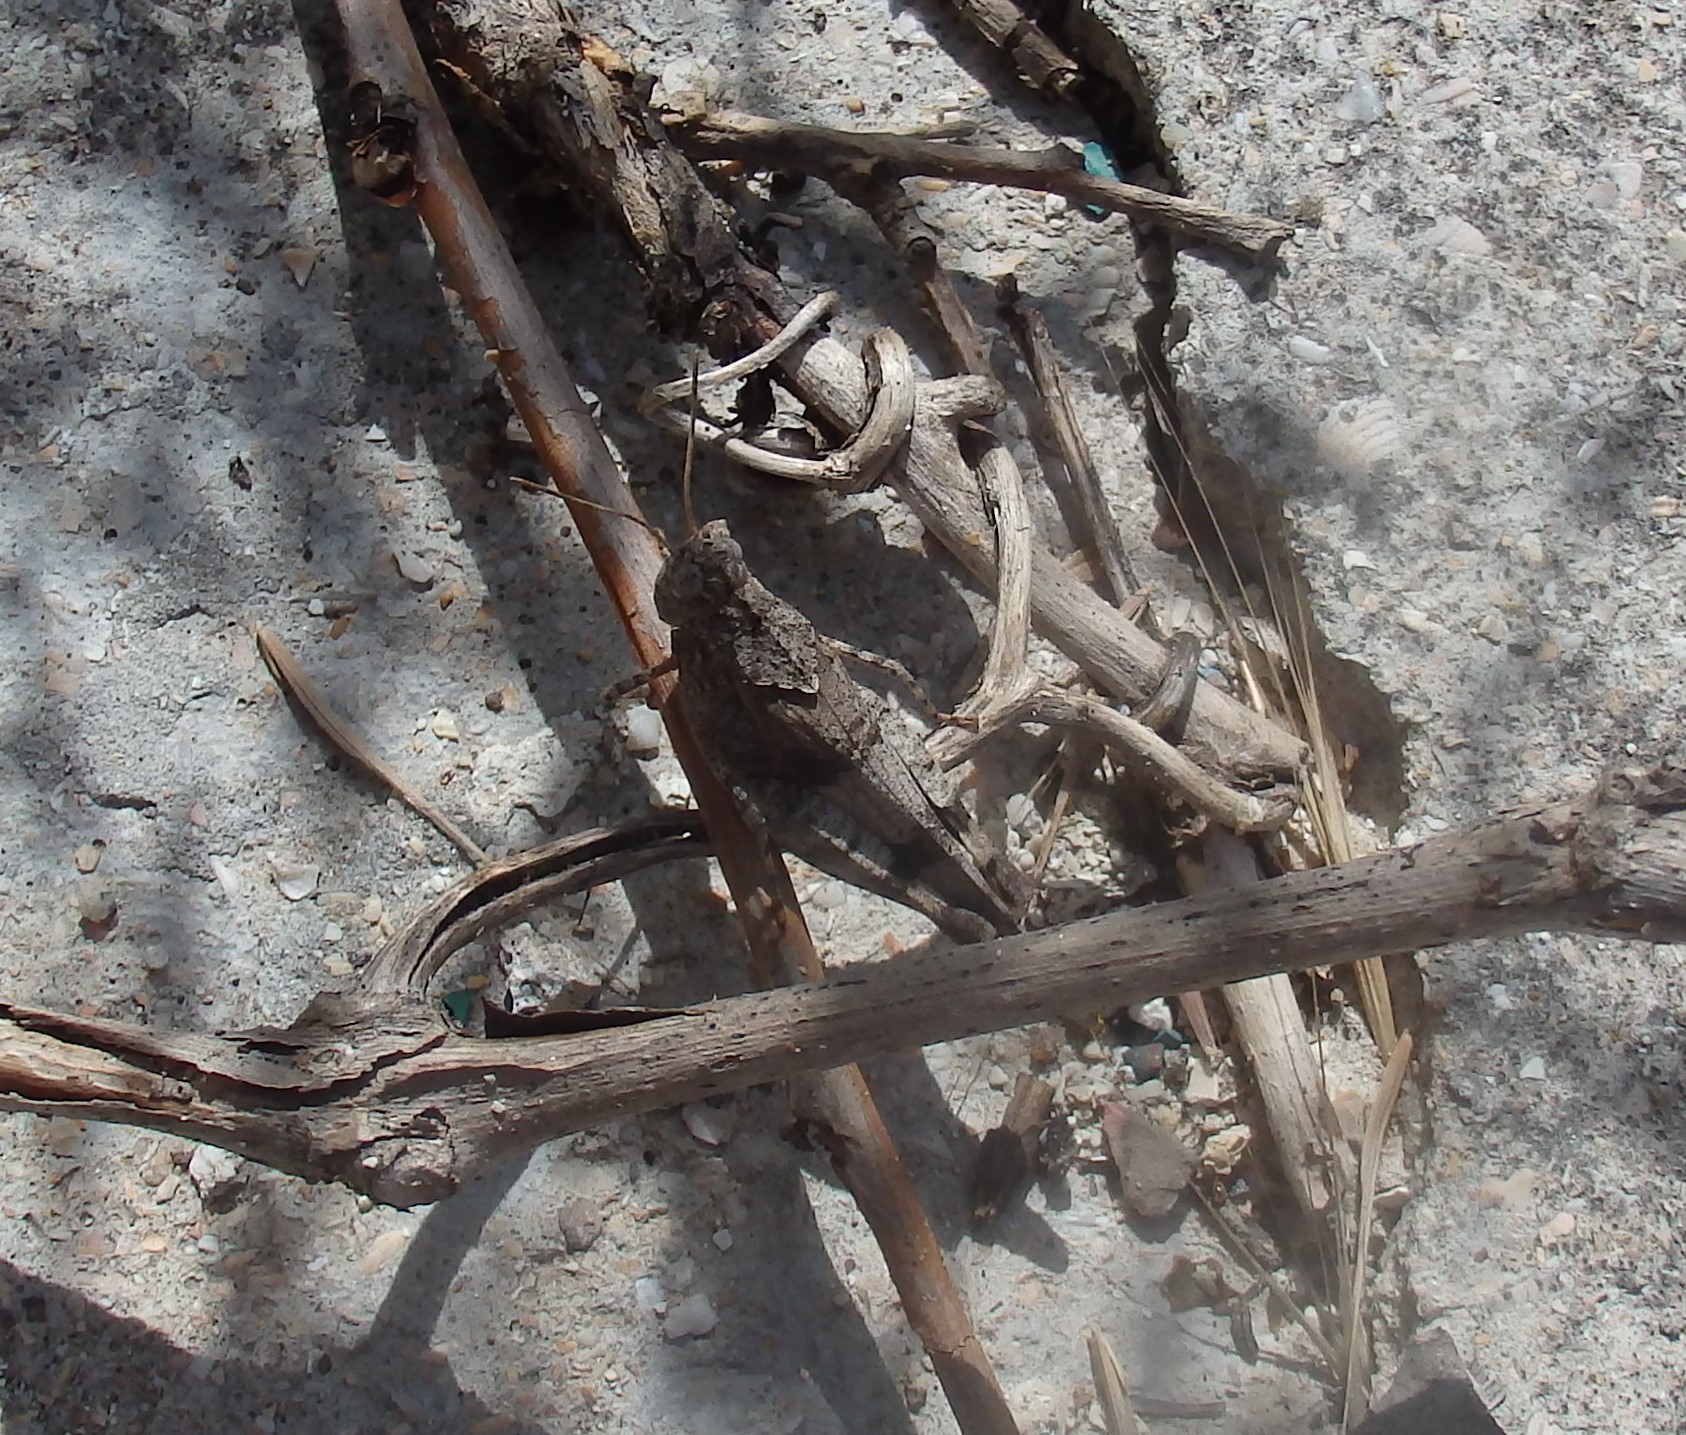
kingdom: Animalia
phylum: Arthropoda
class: Insecta
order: Orthoptera
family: Acrididae
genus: Oedipoda
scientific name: Oedipoda caerulescens
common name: Blue-winged grasshopper
